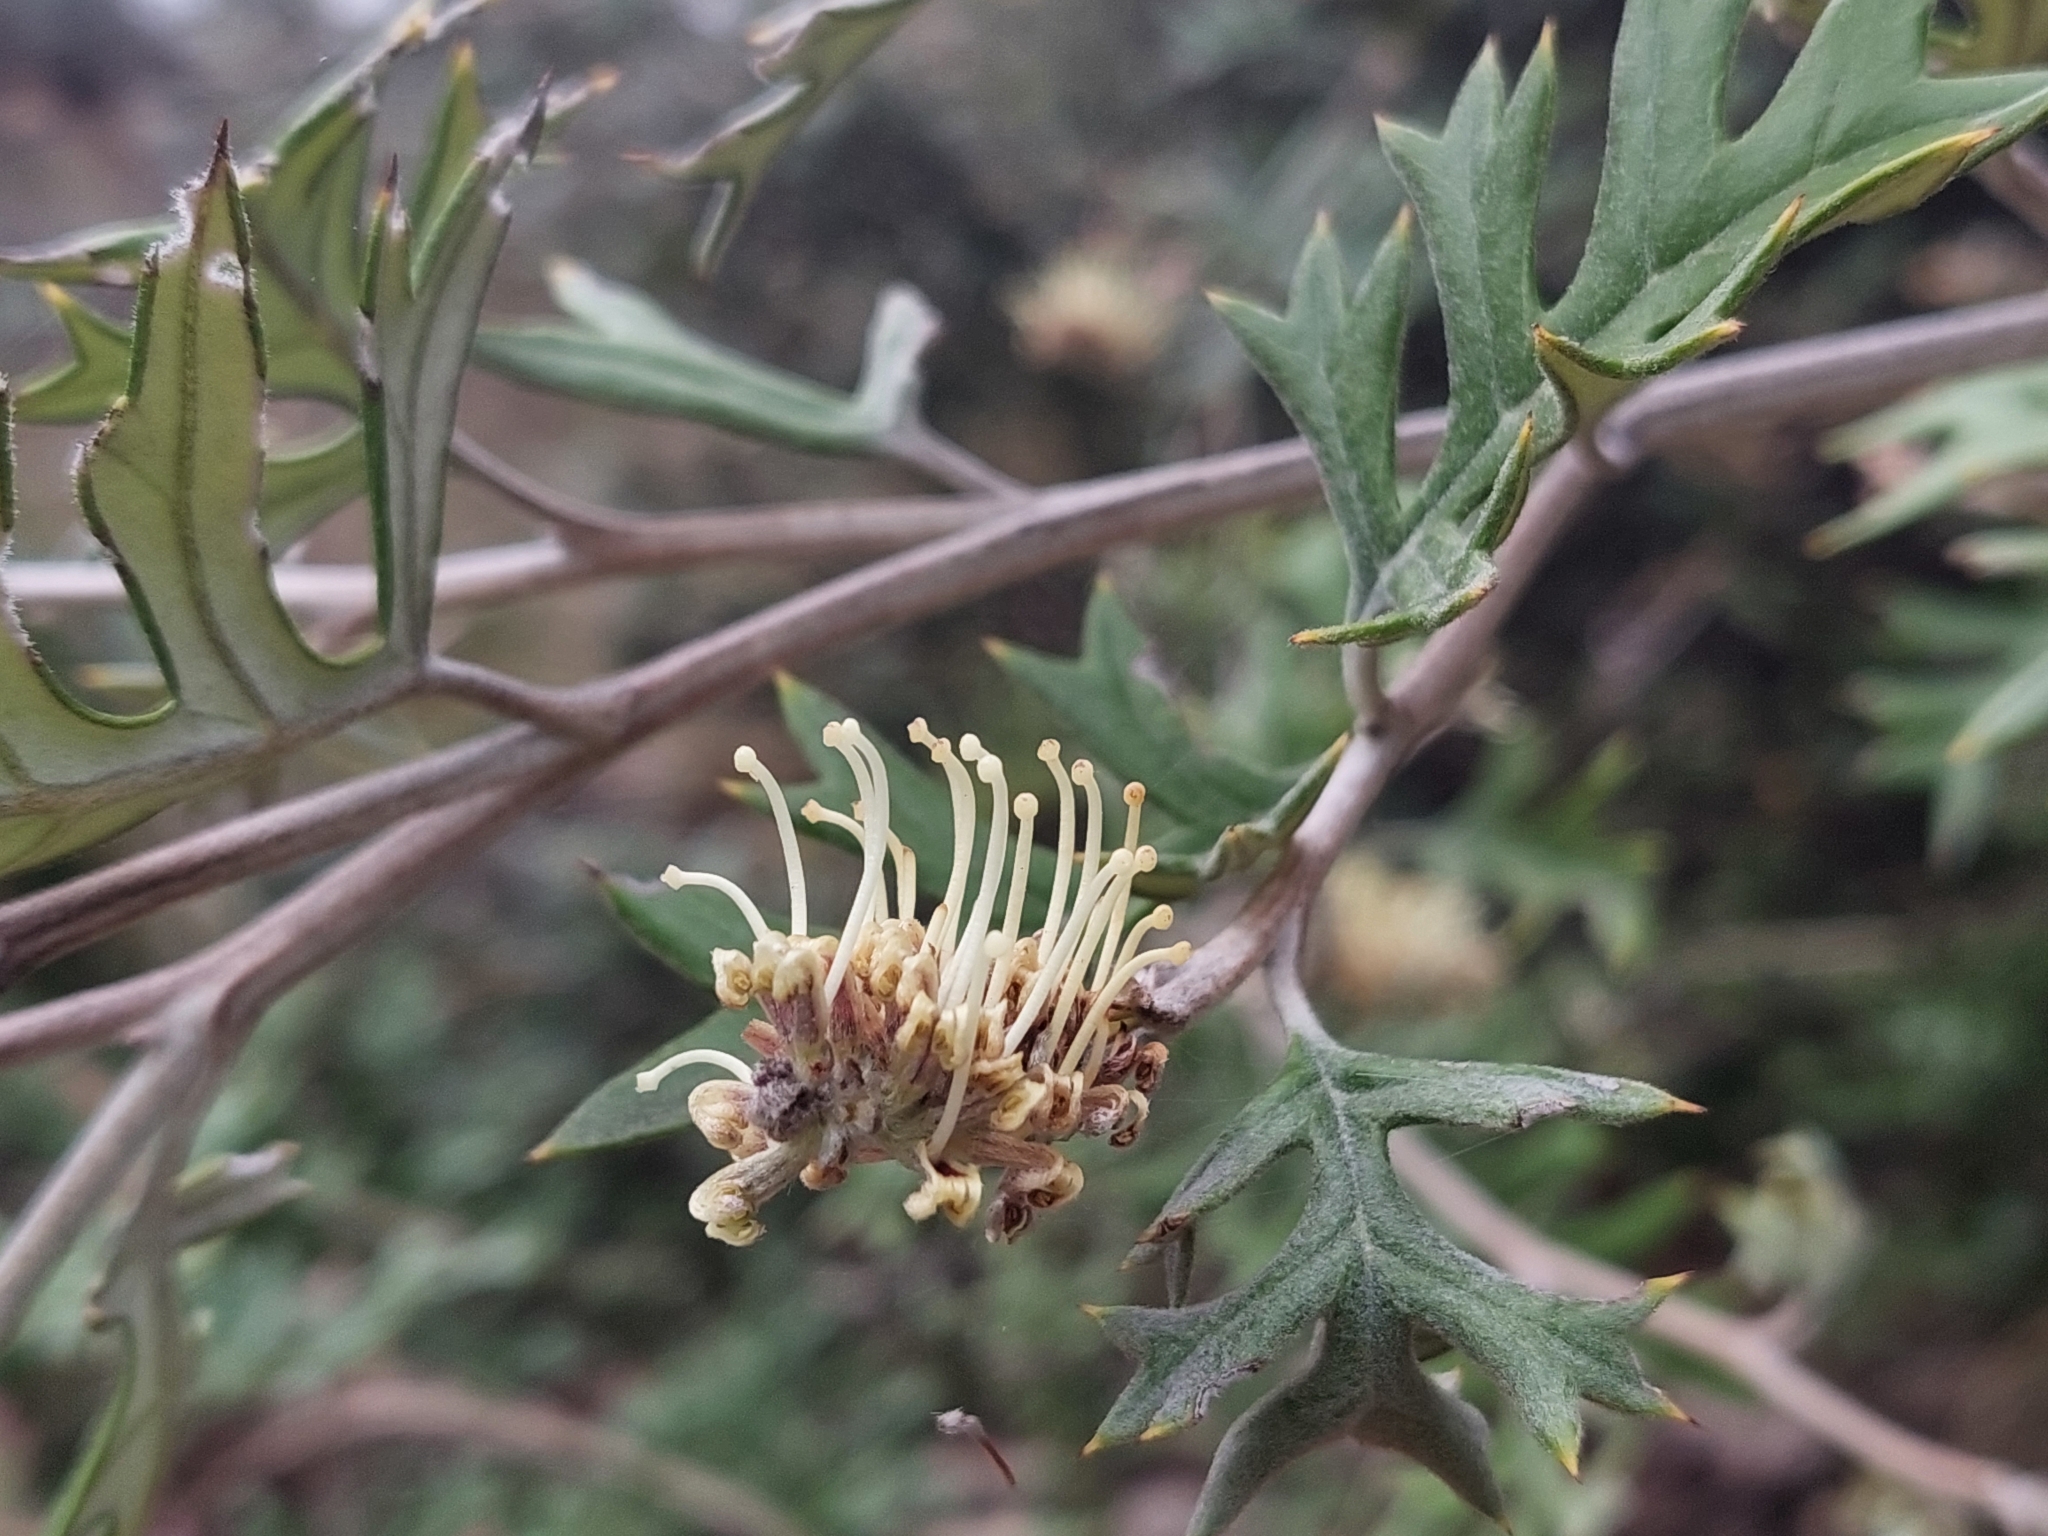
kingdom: Plantae
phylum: Tracheophyta
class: Magnoliopsida
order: Proteales
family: Proteaceae
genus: Grevillea
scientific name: Grevillea willisii
